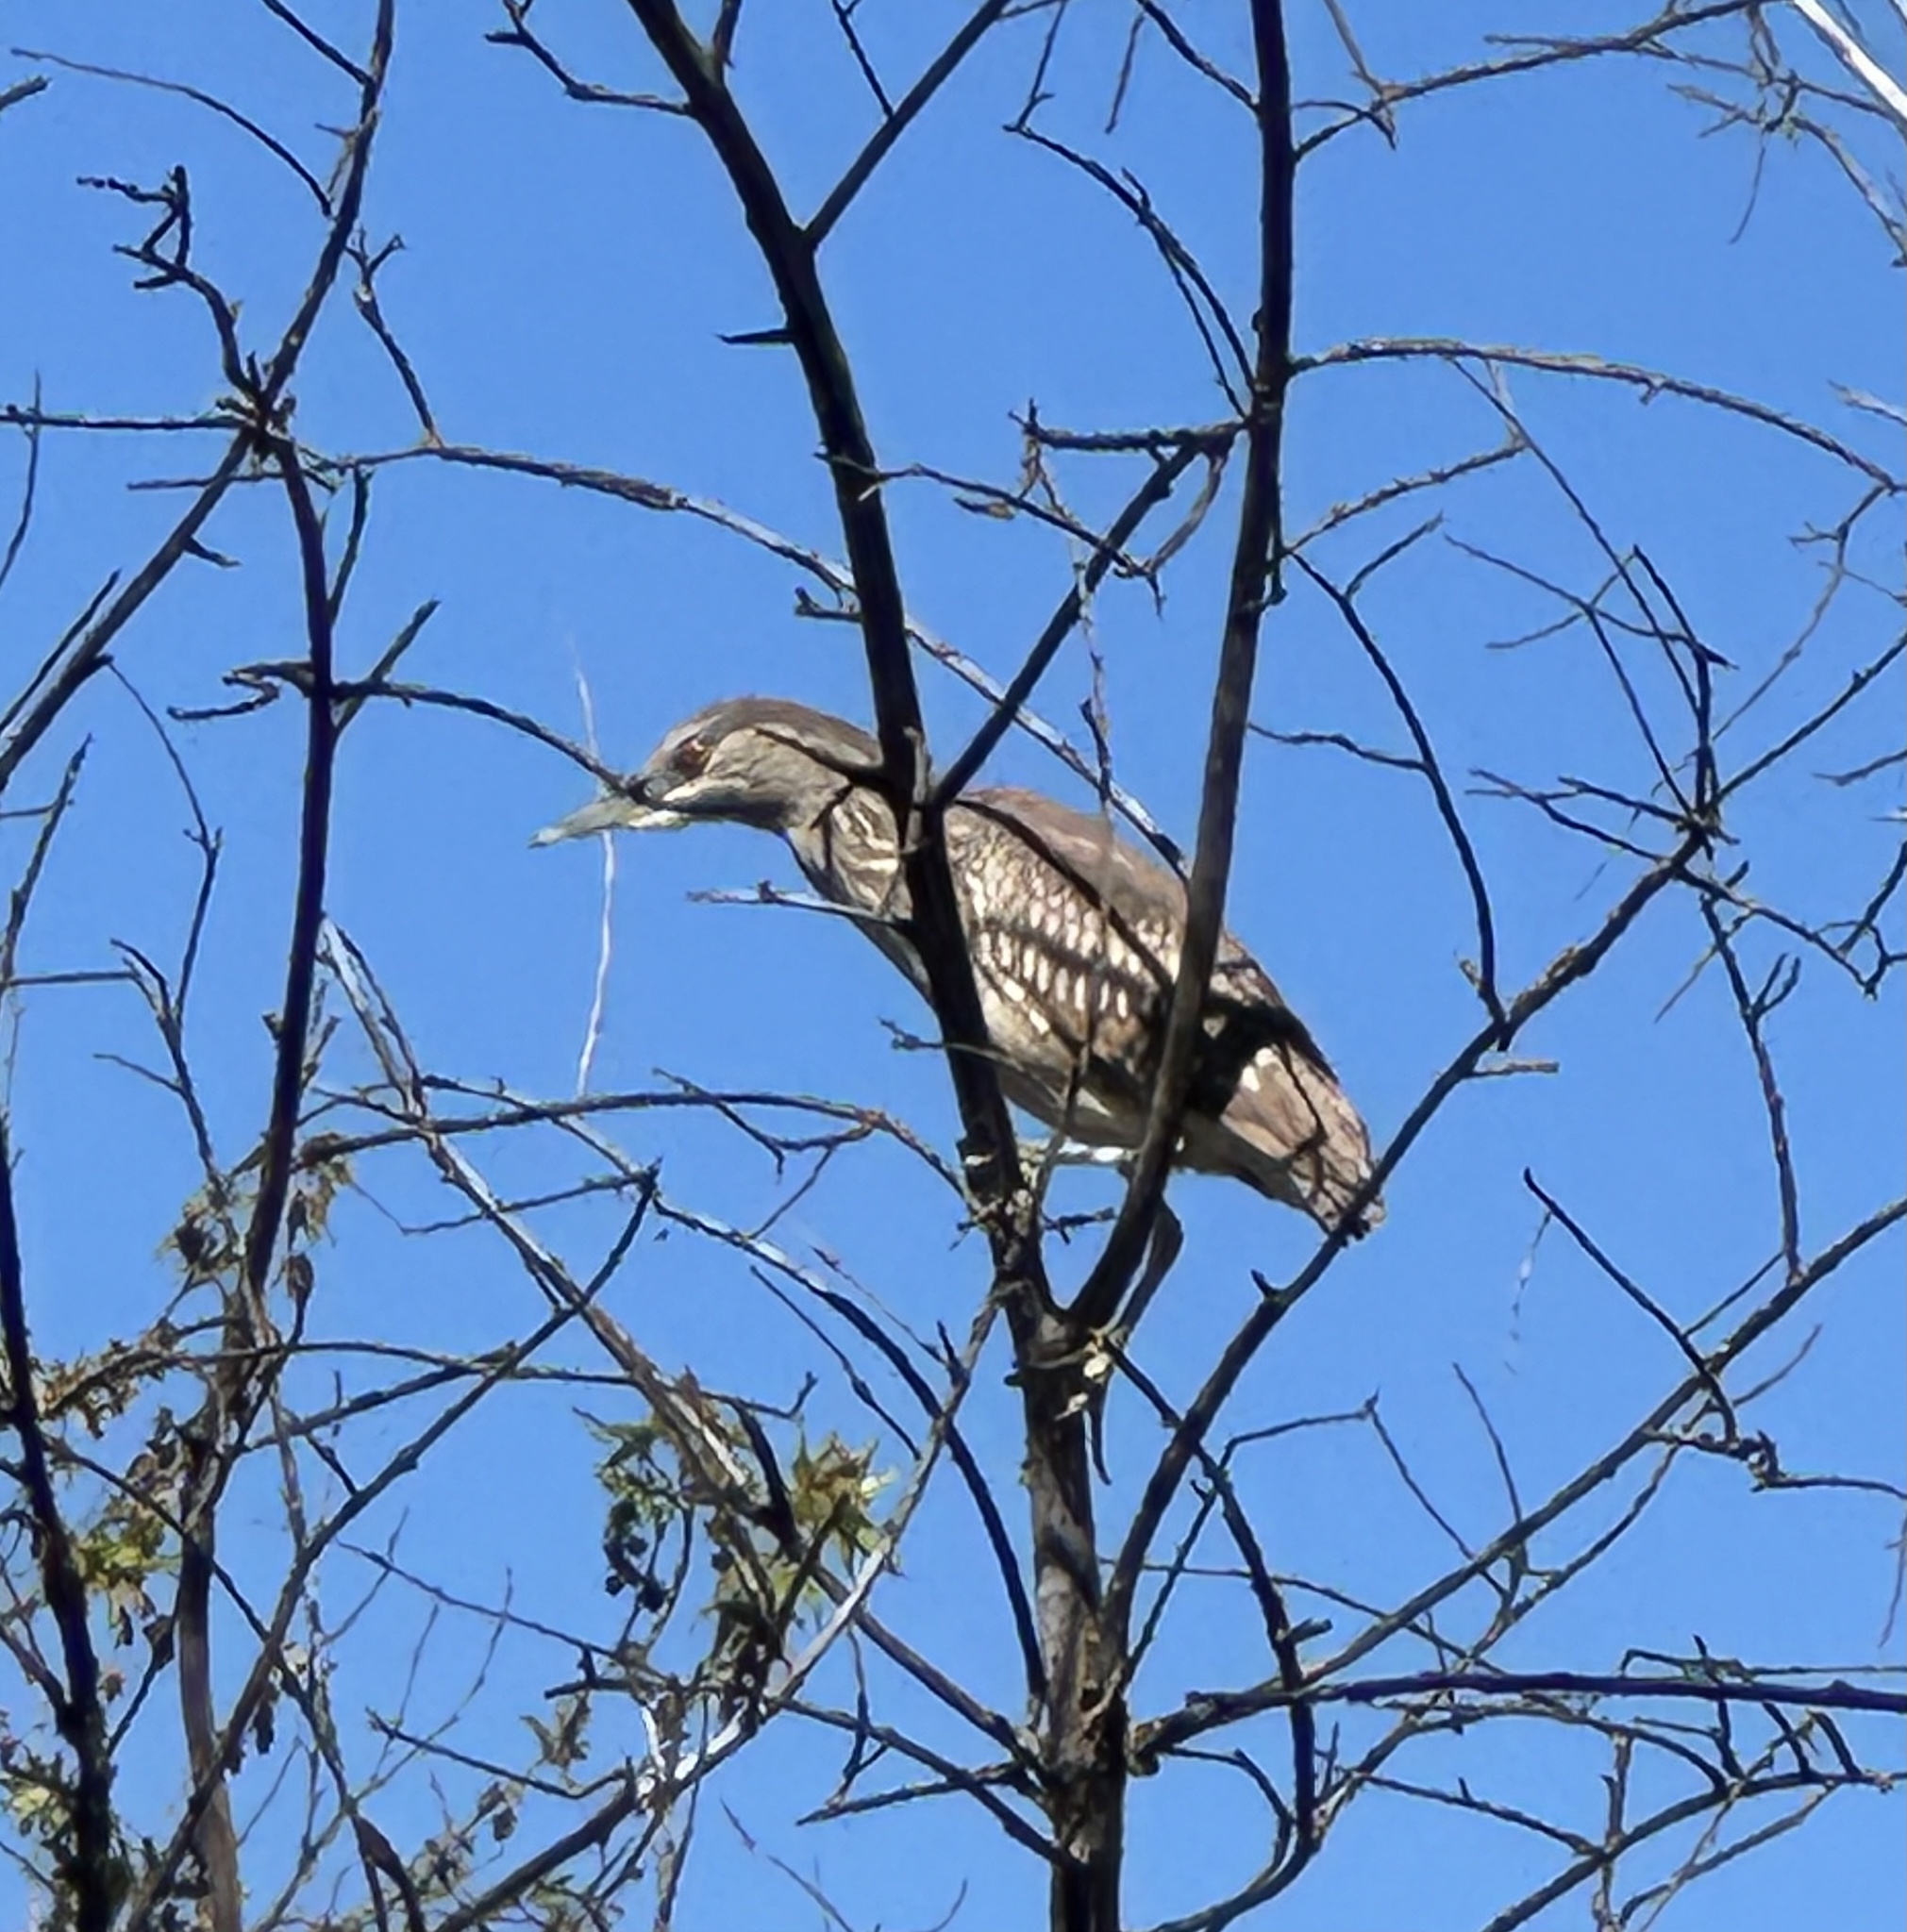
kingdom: Animalia
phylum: Chordata
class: Aves
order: Pelecaniformes
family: Ardeidae
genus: Nycticorax
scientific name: Nycticorax nycticorax
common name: Black-crowned night heron
